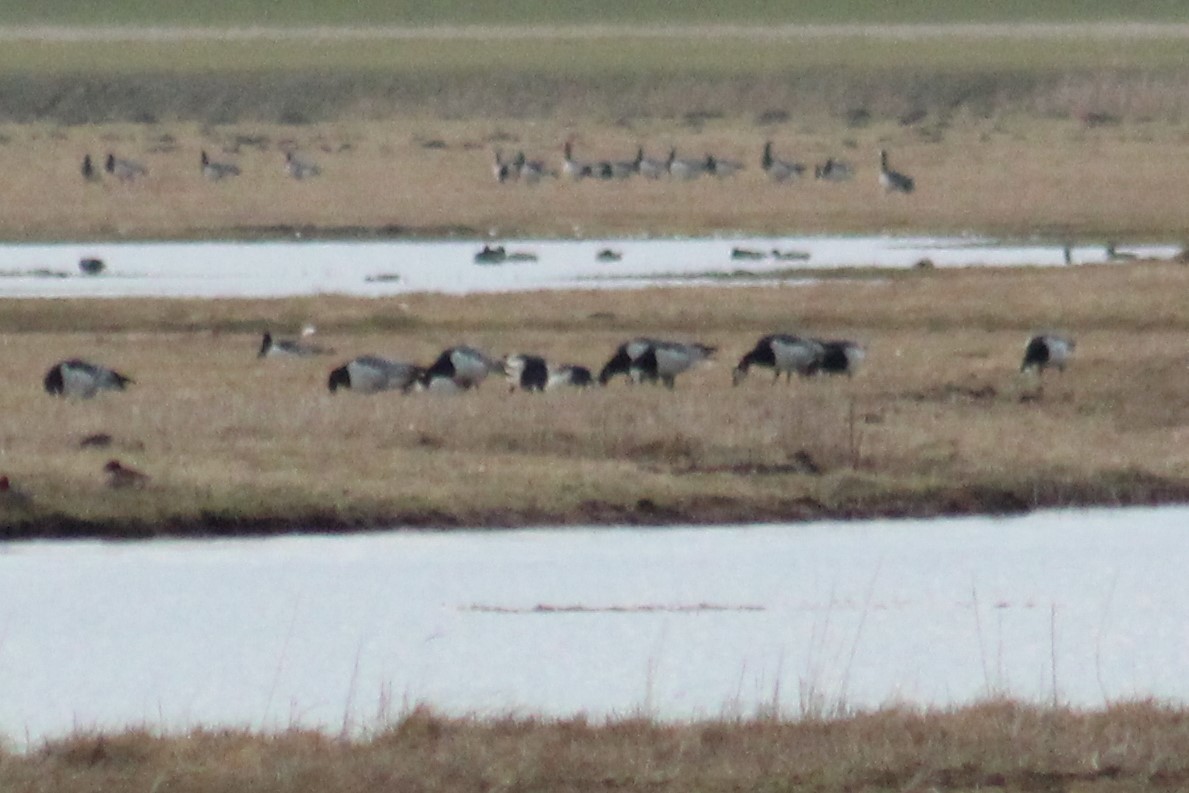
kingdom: Animalia
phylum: Chordata
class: Aves
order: Anseriformes
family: Anatidae
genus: Branta
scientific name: Branta leucopsis
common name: Barnacle goose
